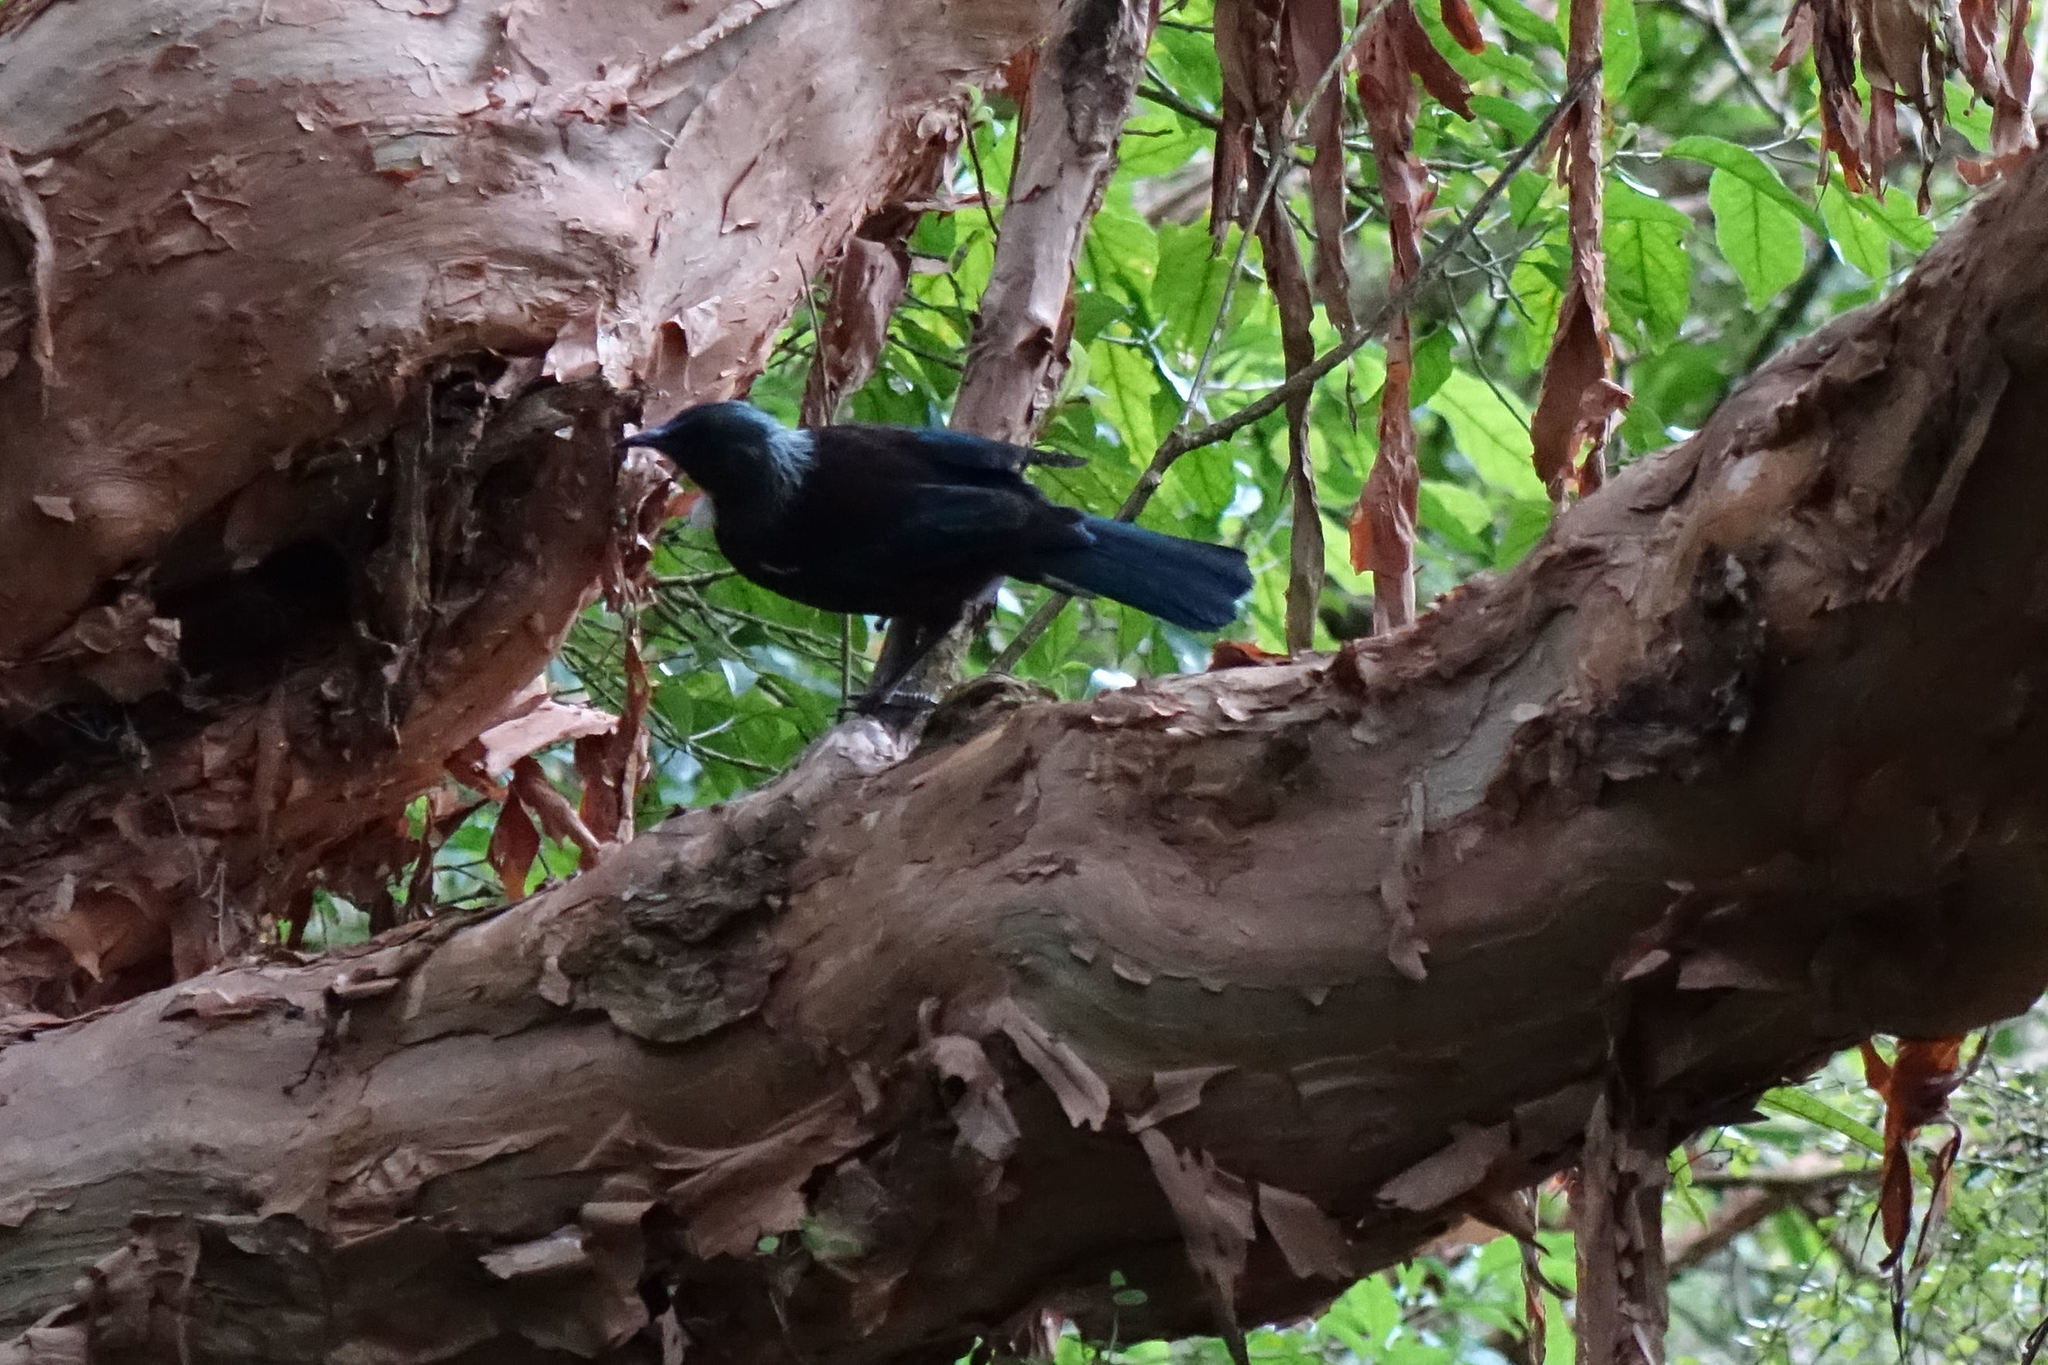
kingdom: Animalia
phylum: Chordata
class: Aves
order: Passeriformes
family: Meliphagidae
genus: Prosthemadera
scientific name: Prosthemadera novaeseelandiae
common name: Tui
